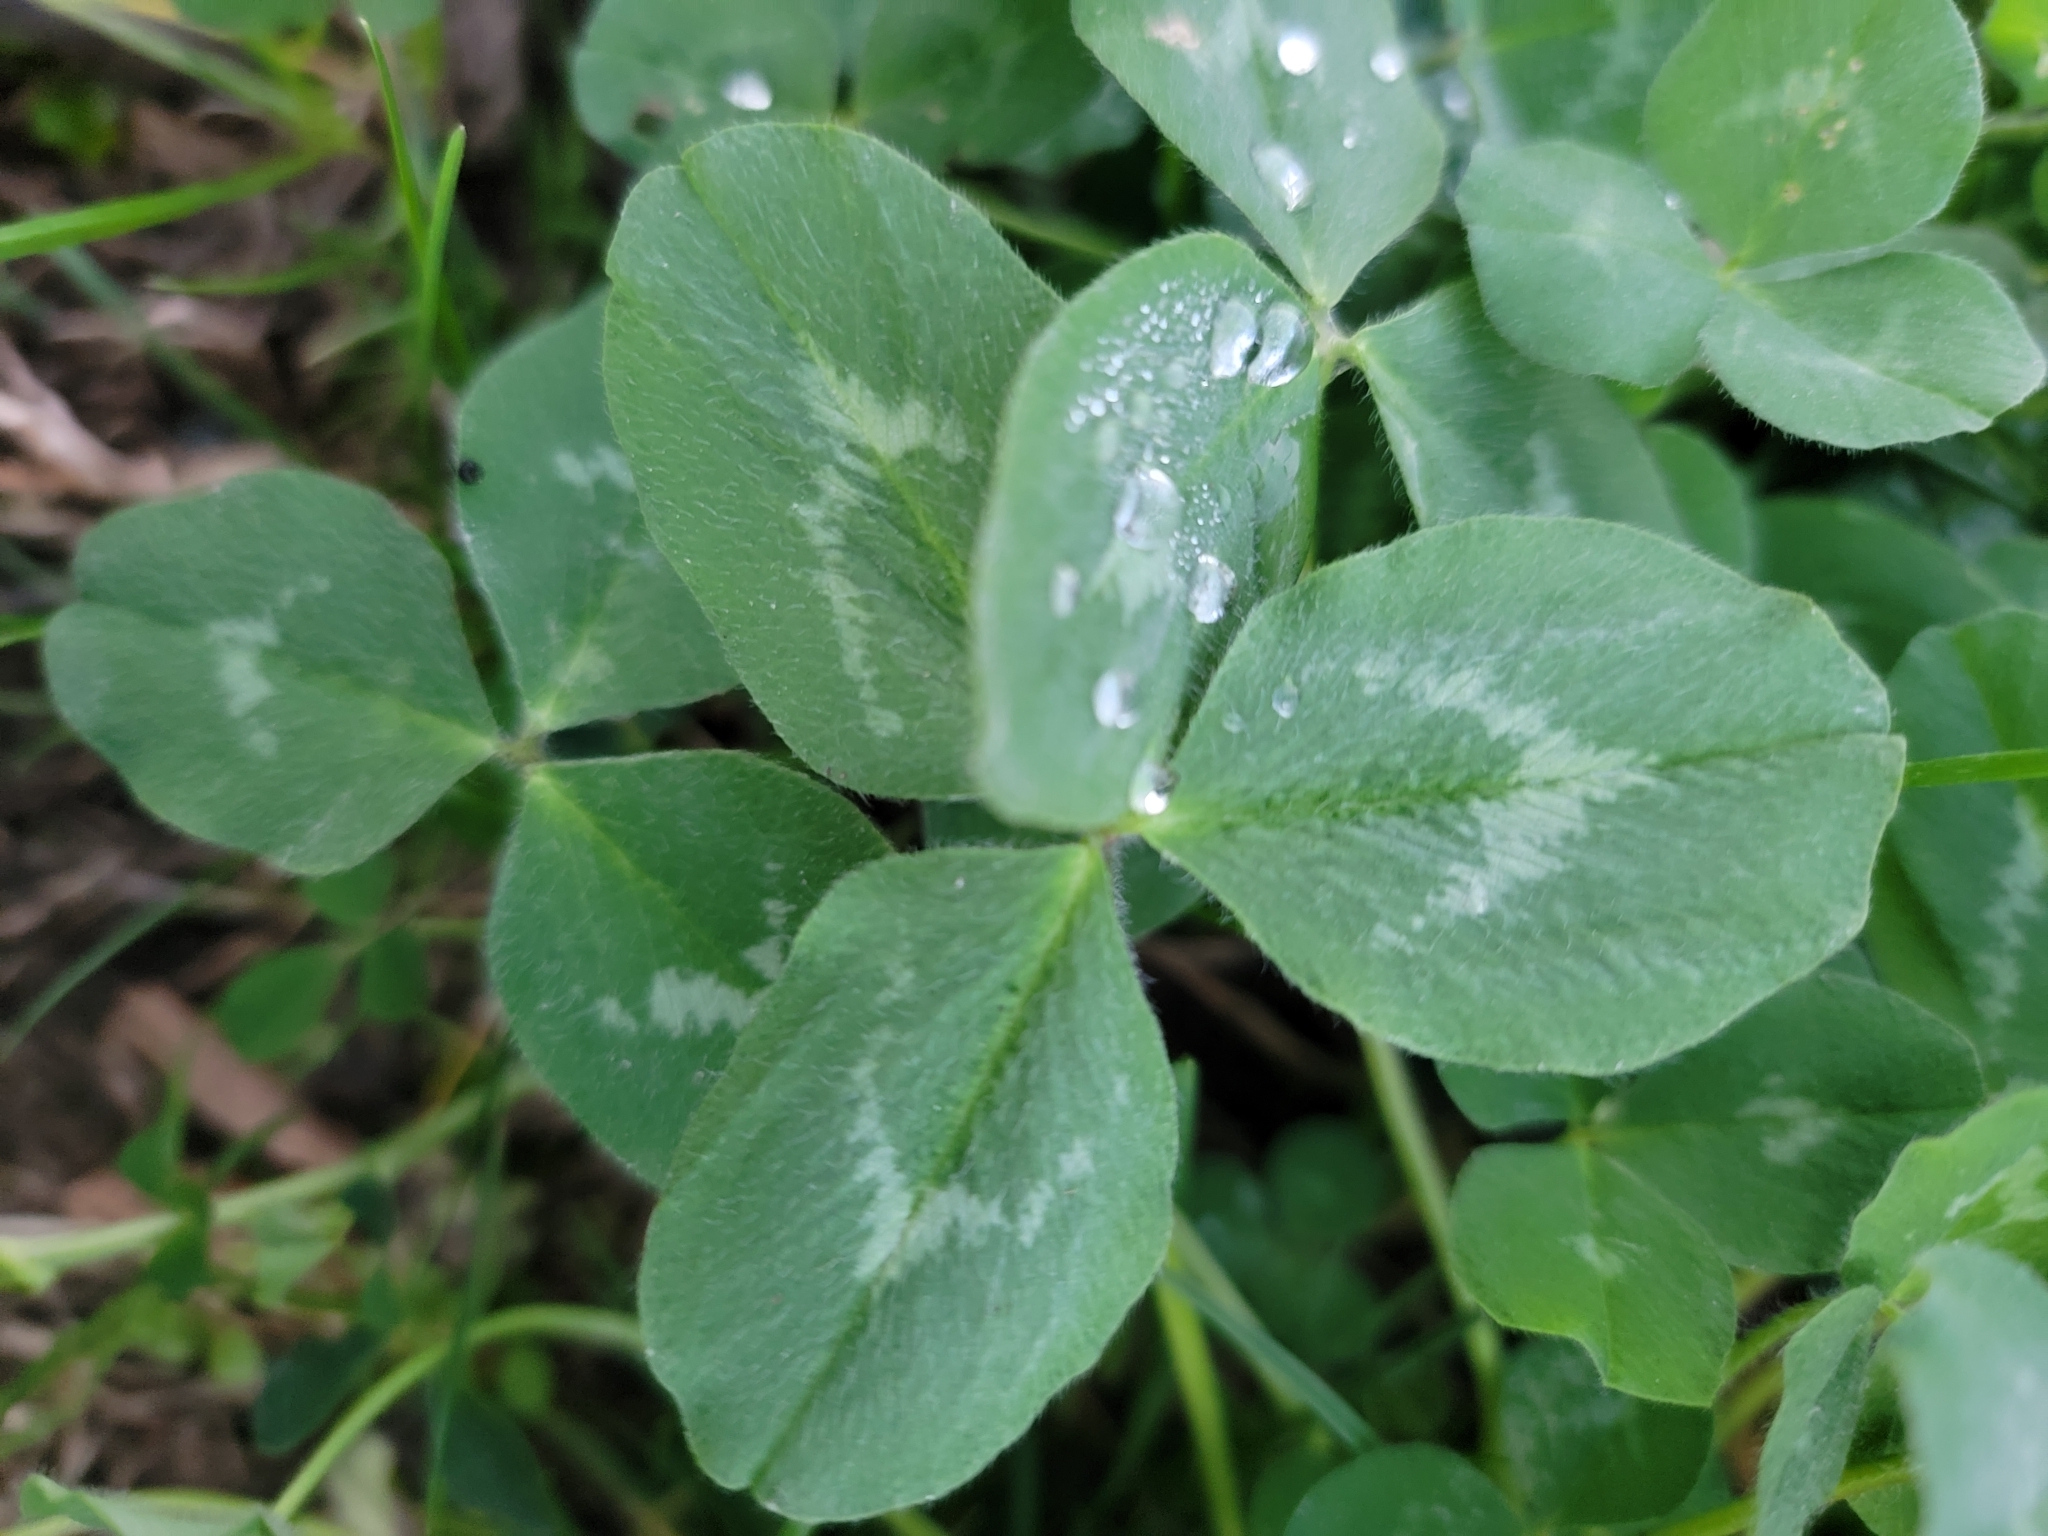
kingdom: Plantae
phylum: Tracheophyta
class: Magnoliopsida
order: Fabales
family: Fabaceae
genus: Trifolium
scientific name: Trifolium pratense
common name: Red clover
